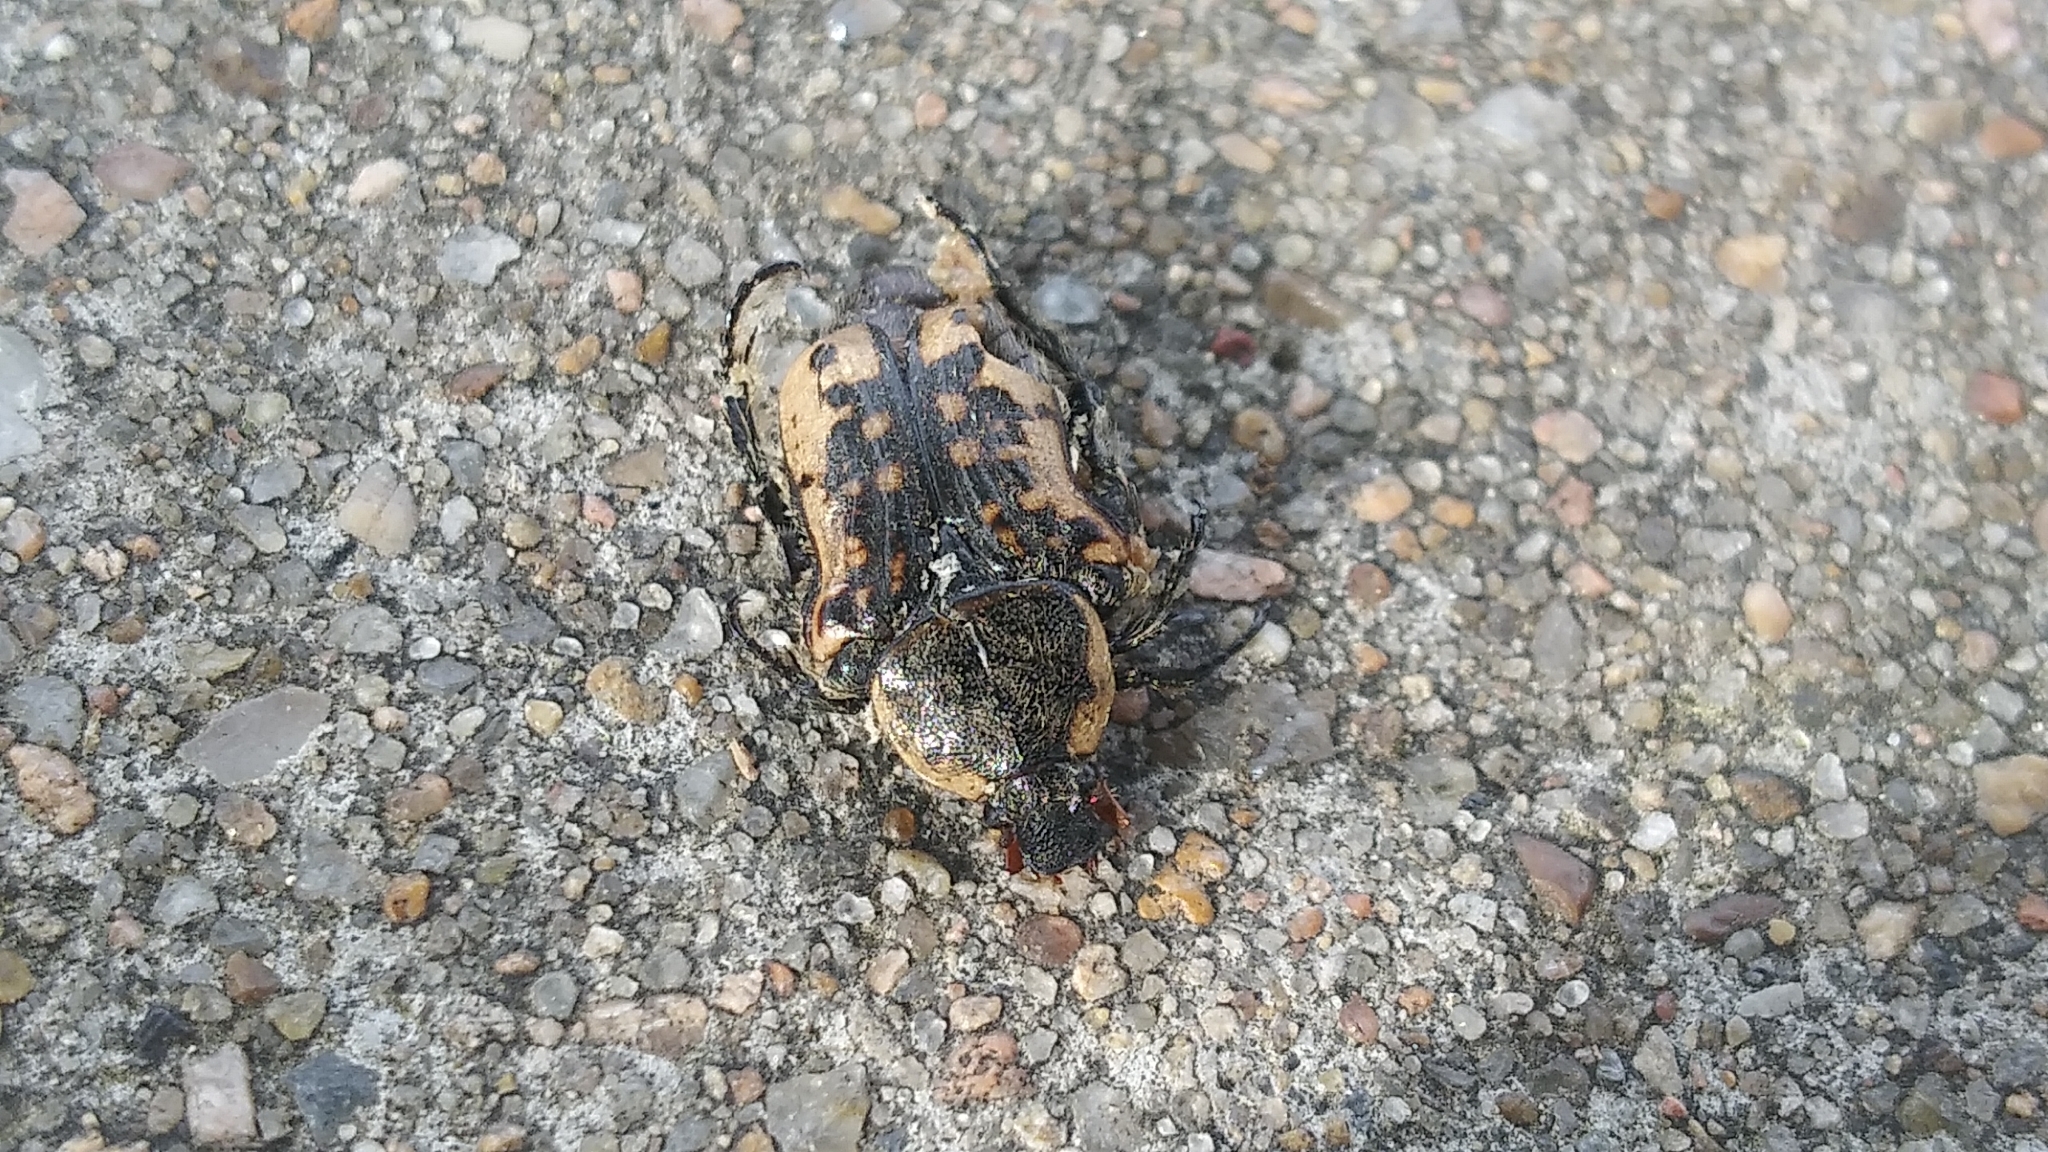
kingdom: Animalia
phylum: Arthropoda
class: Insecta
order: Coleoptera
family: Scarabaeidae
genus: Euphoria
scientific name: Euphoria kernii
